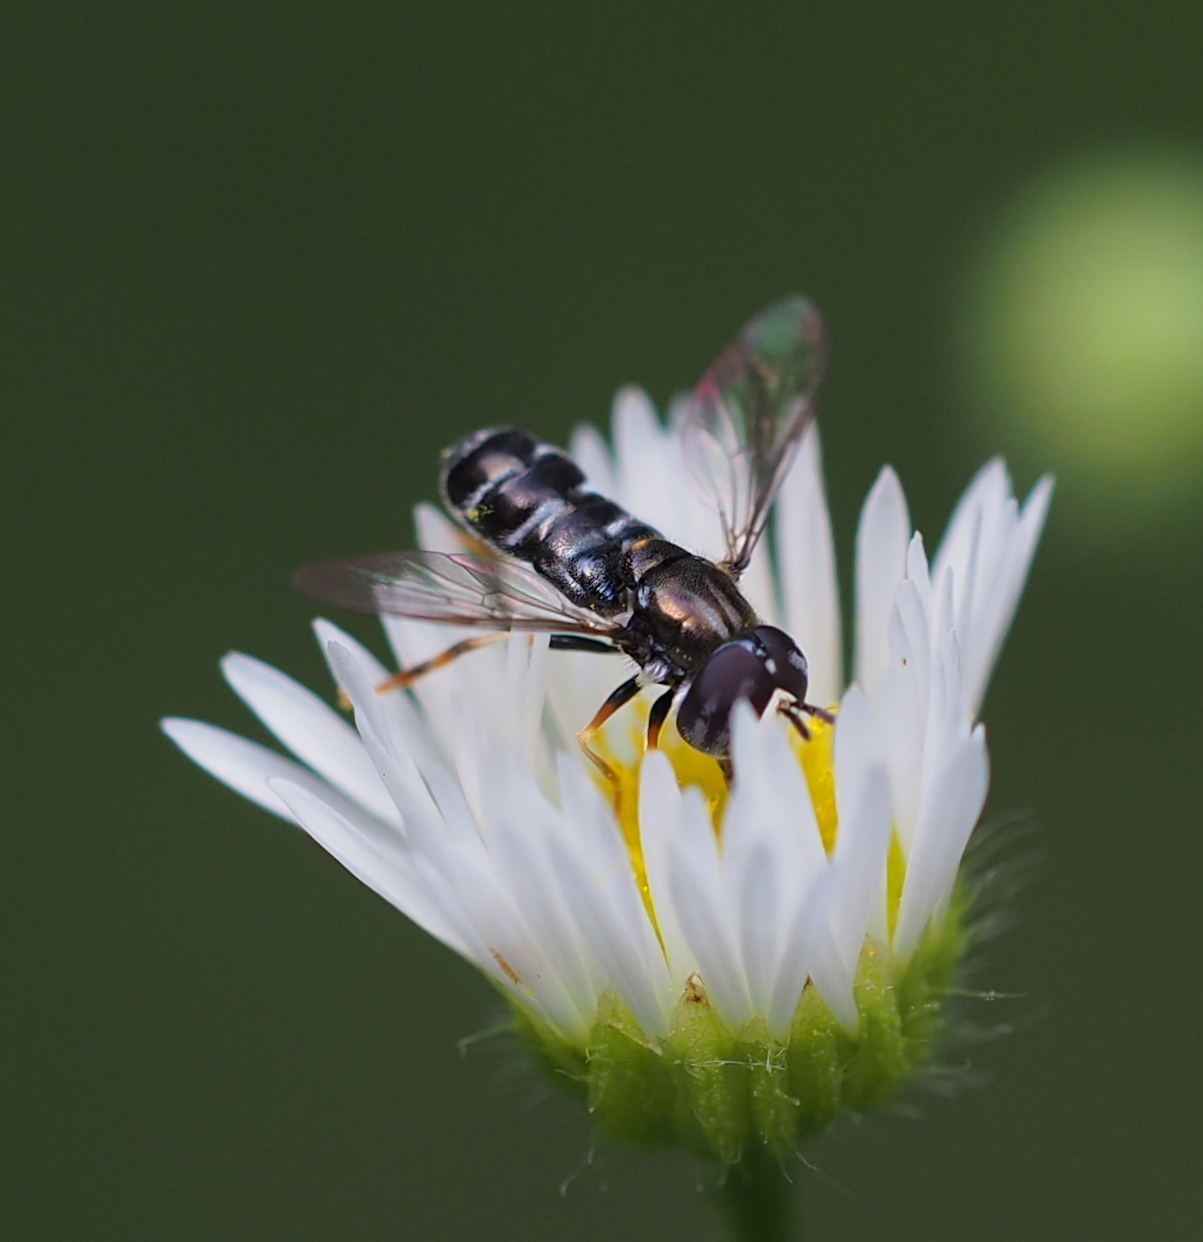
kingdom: Animalia
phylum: Arthropoda
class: Insecta
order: Diptera
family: Syrphidae
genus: Paragus
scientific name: Paragus pecchiolii
